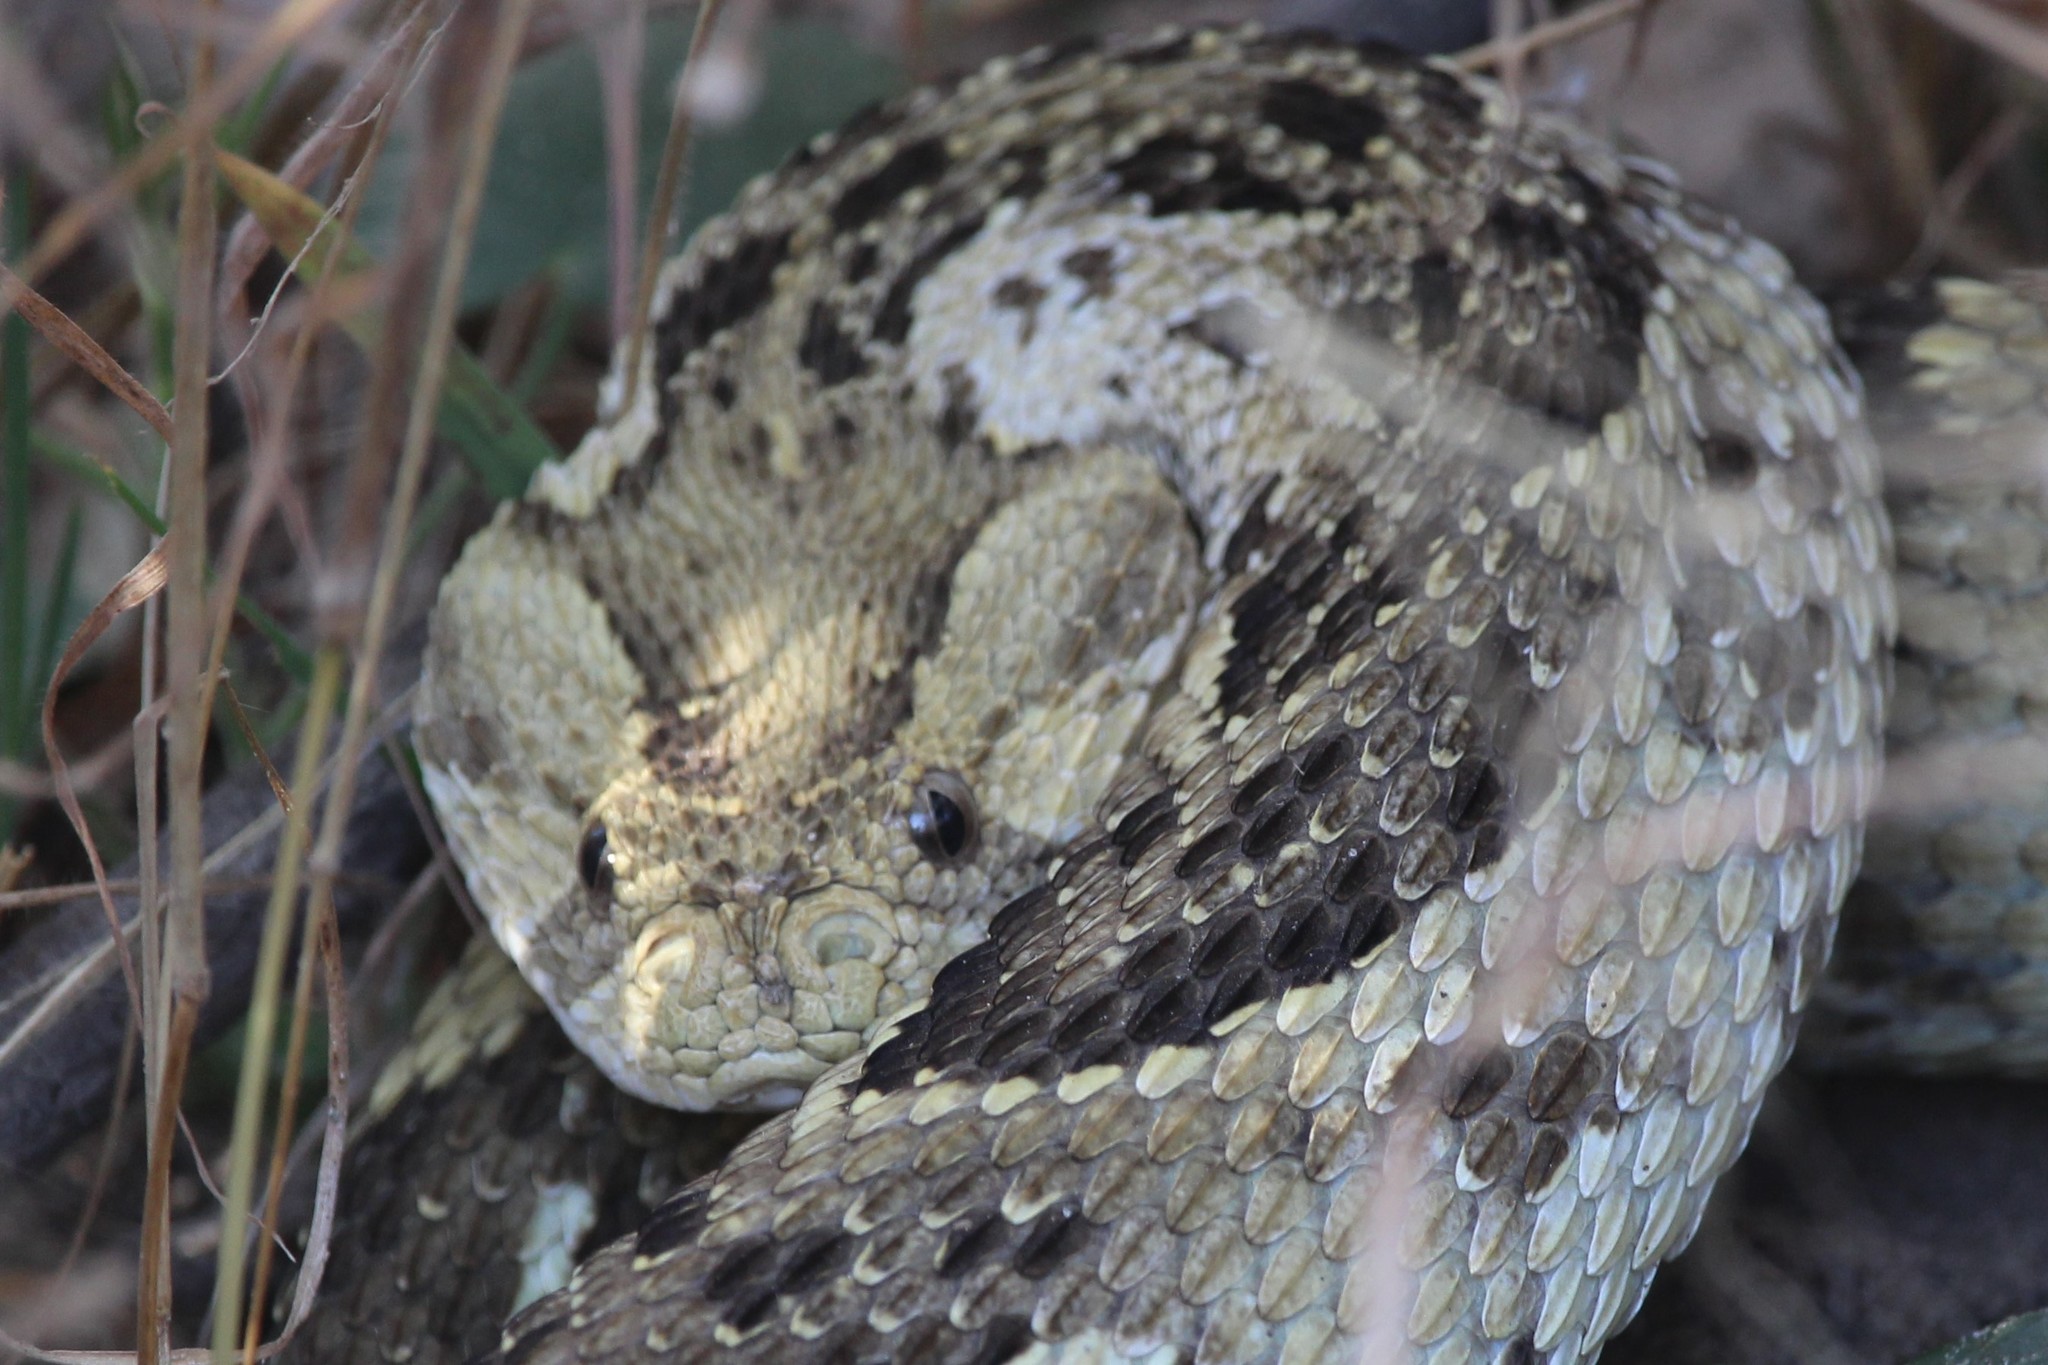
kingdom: Animalia
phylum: Chordata
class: Squamata
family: Viperidae
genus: Bitis
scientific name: Bitis arietans
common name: Puff adder
